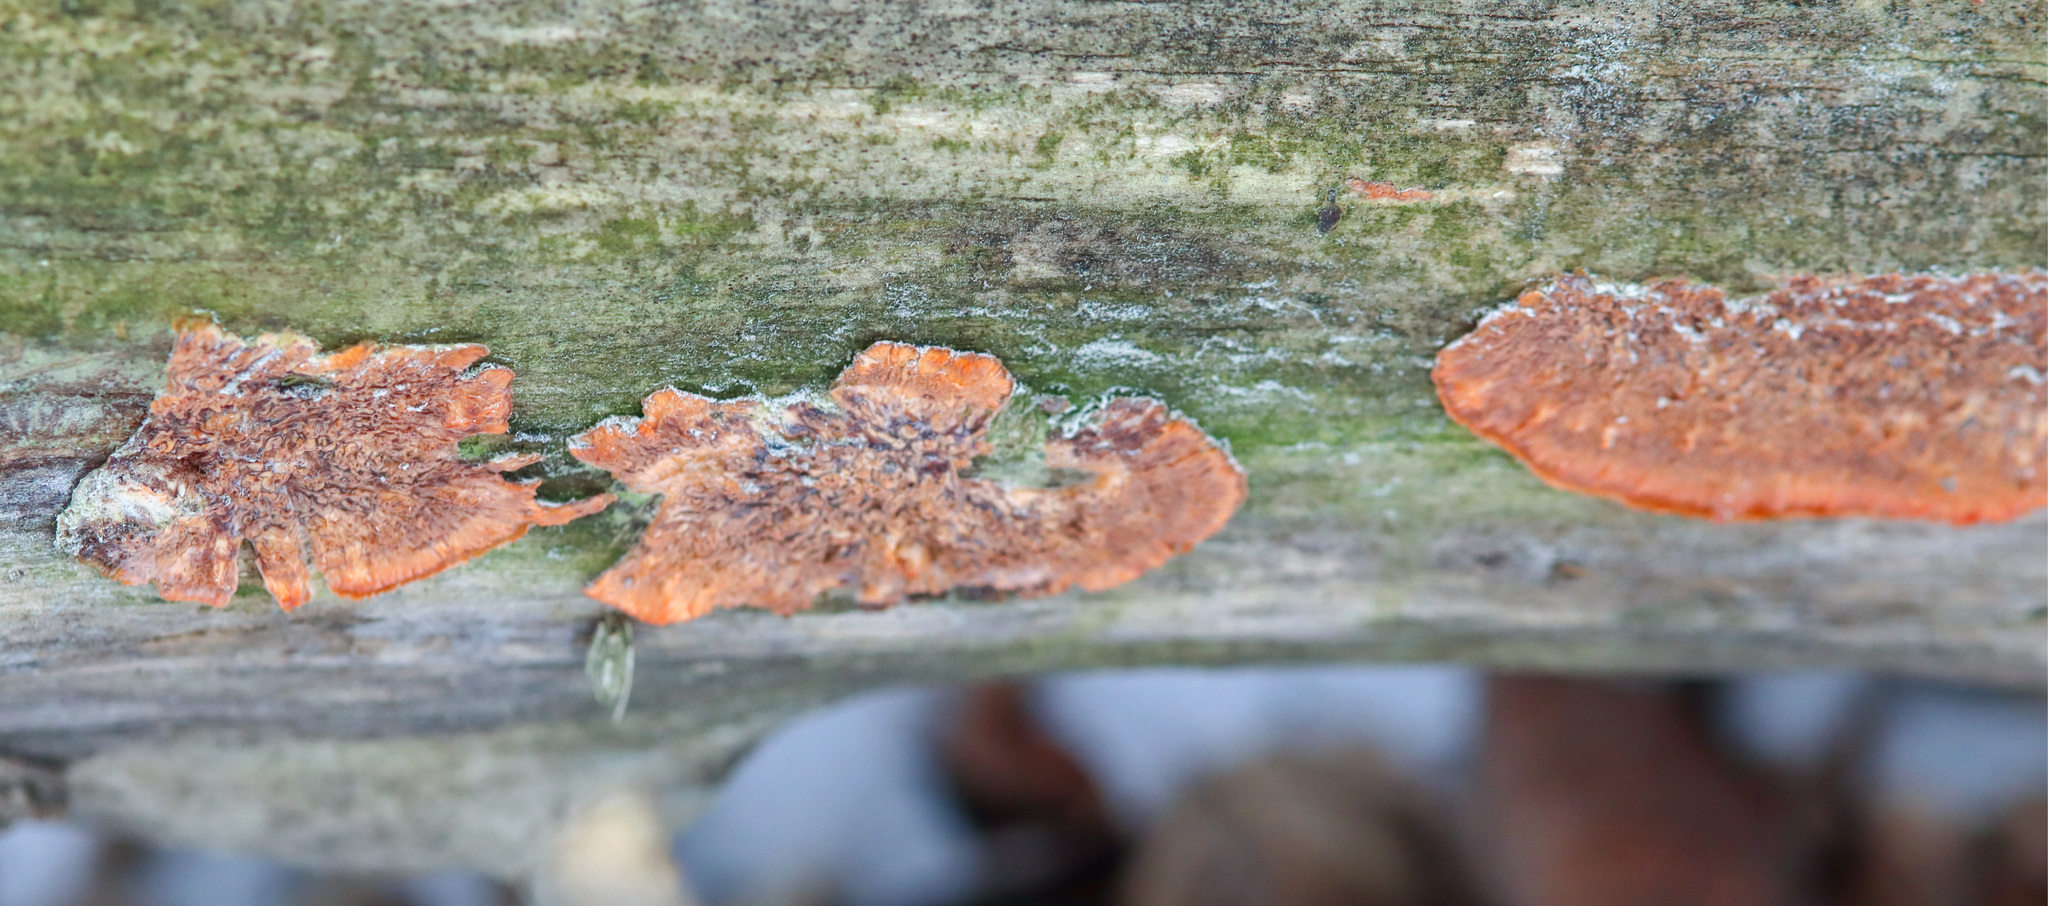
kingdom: Fungi
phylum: Basidiomycota
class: Agaricomycetes
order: Polyporales
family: Meruliaceae
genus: Phlebia
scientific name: Phlebia radiata
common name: Wrinkled crust
